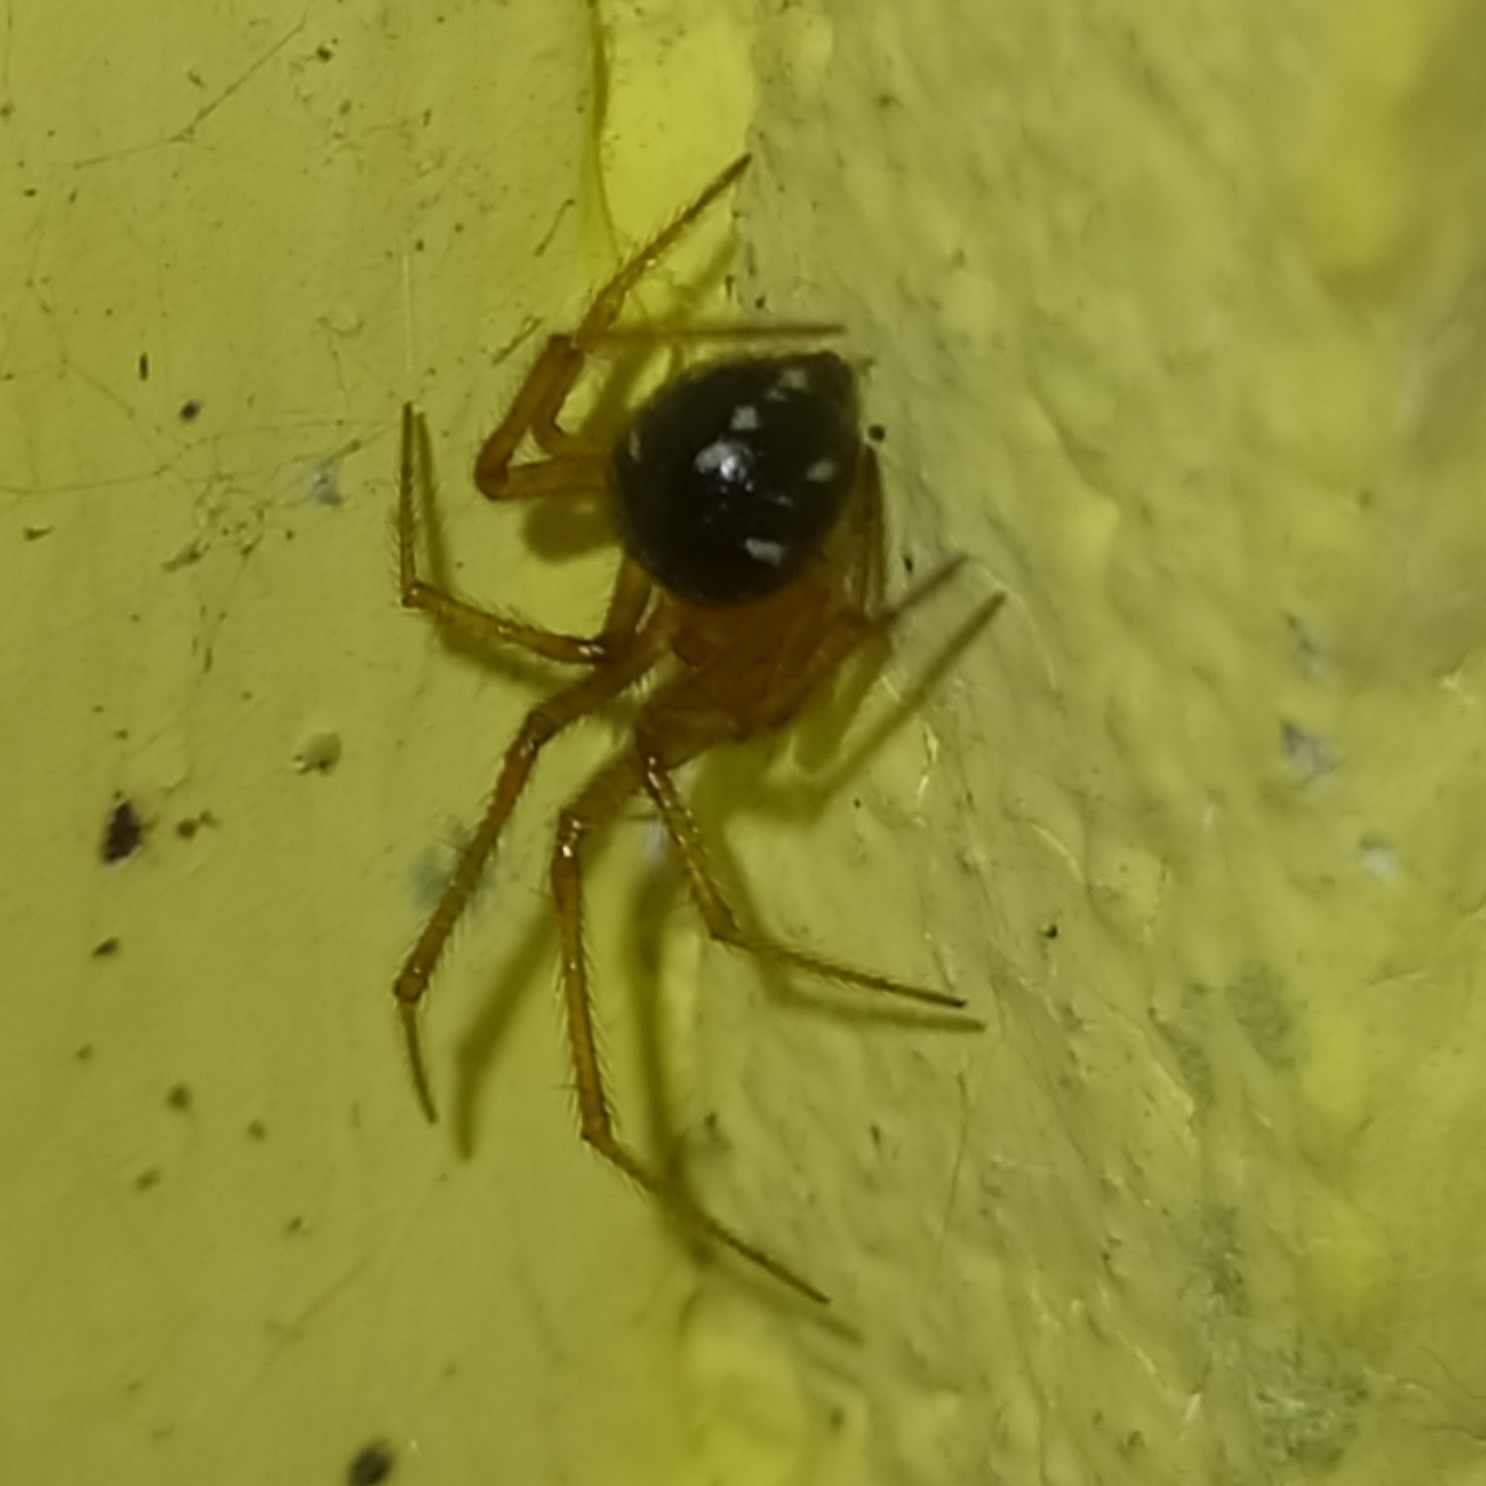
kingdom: Animalia
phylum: Arthropoda
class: Arachnida
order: Araneae
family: Theridiidae
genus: Nesticodes
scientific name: Nesticodes rufipes
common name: Cobweb spiders
